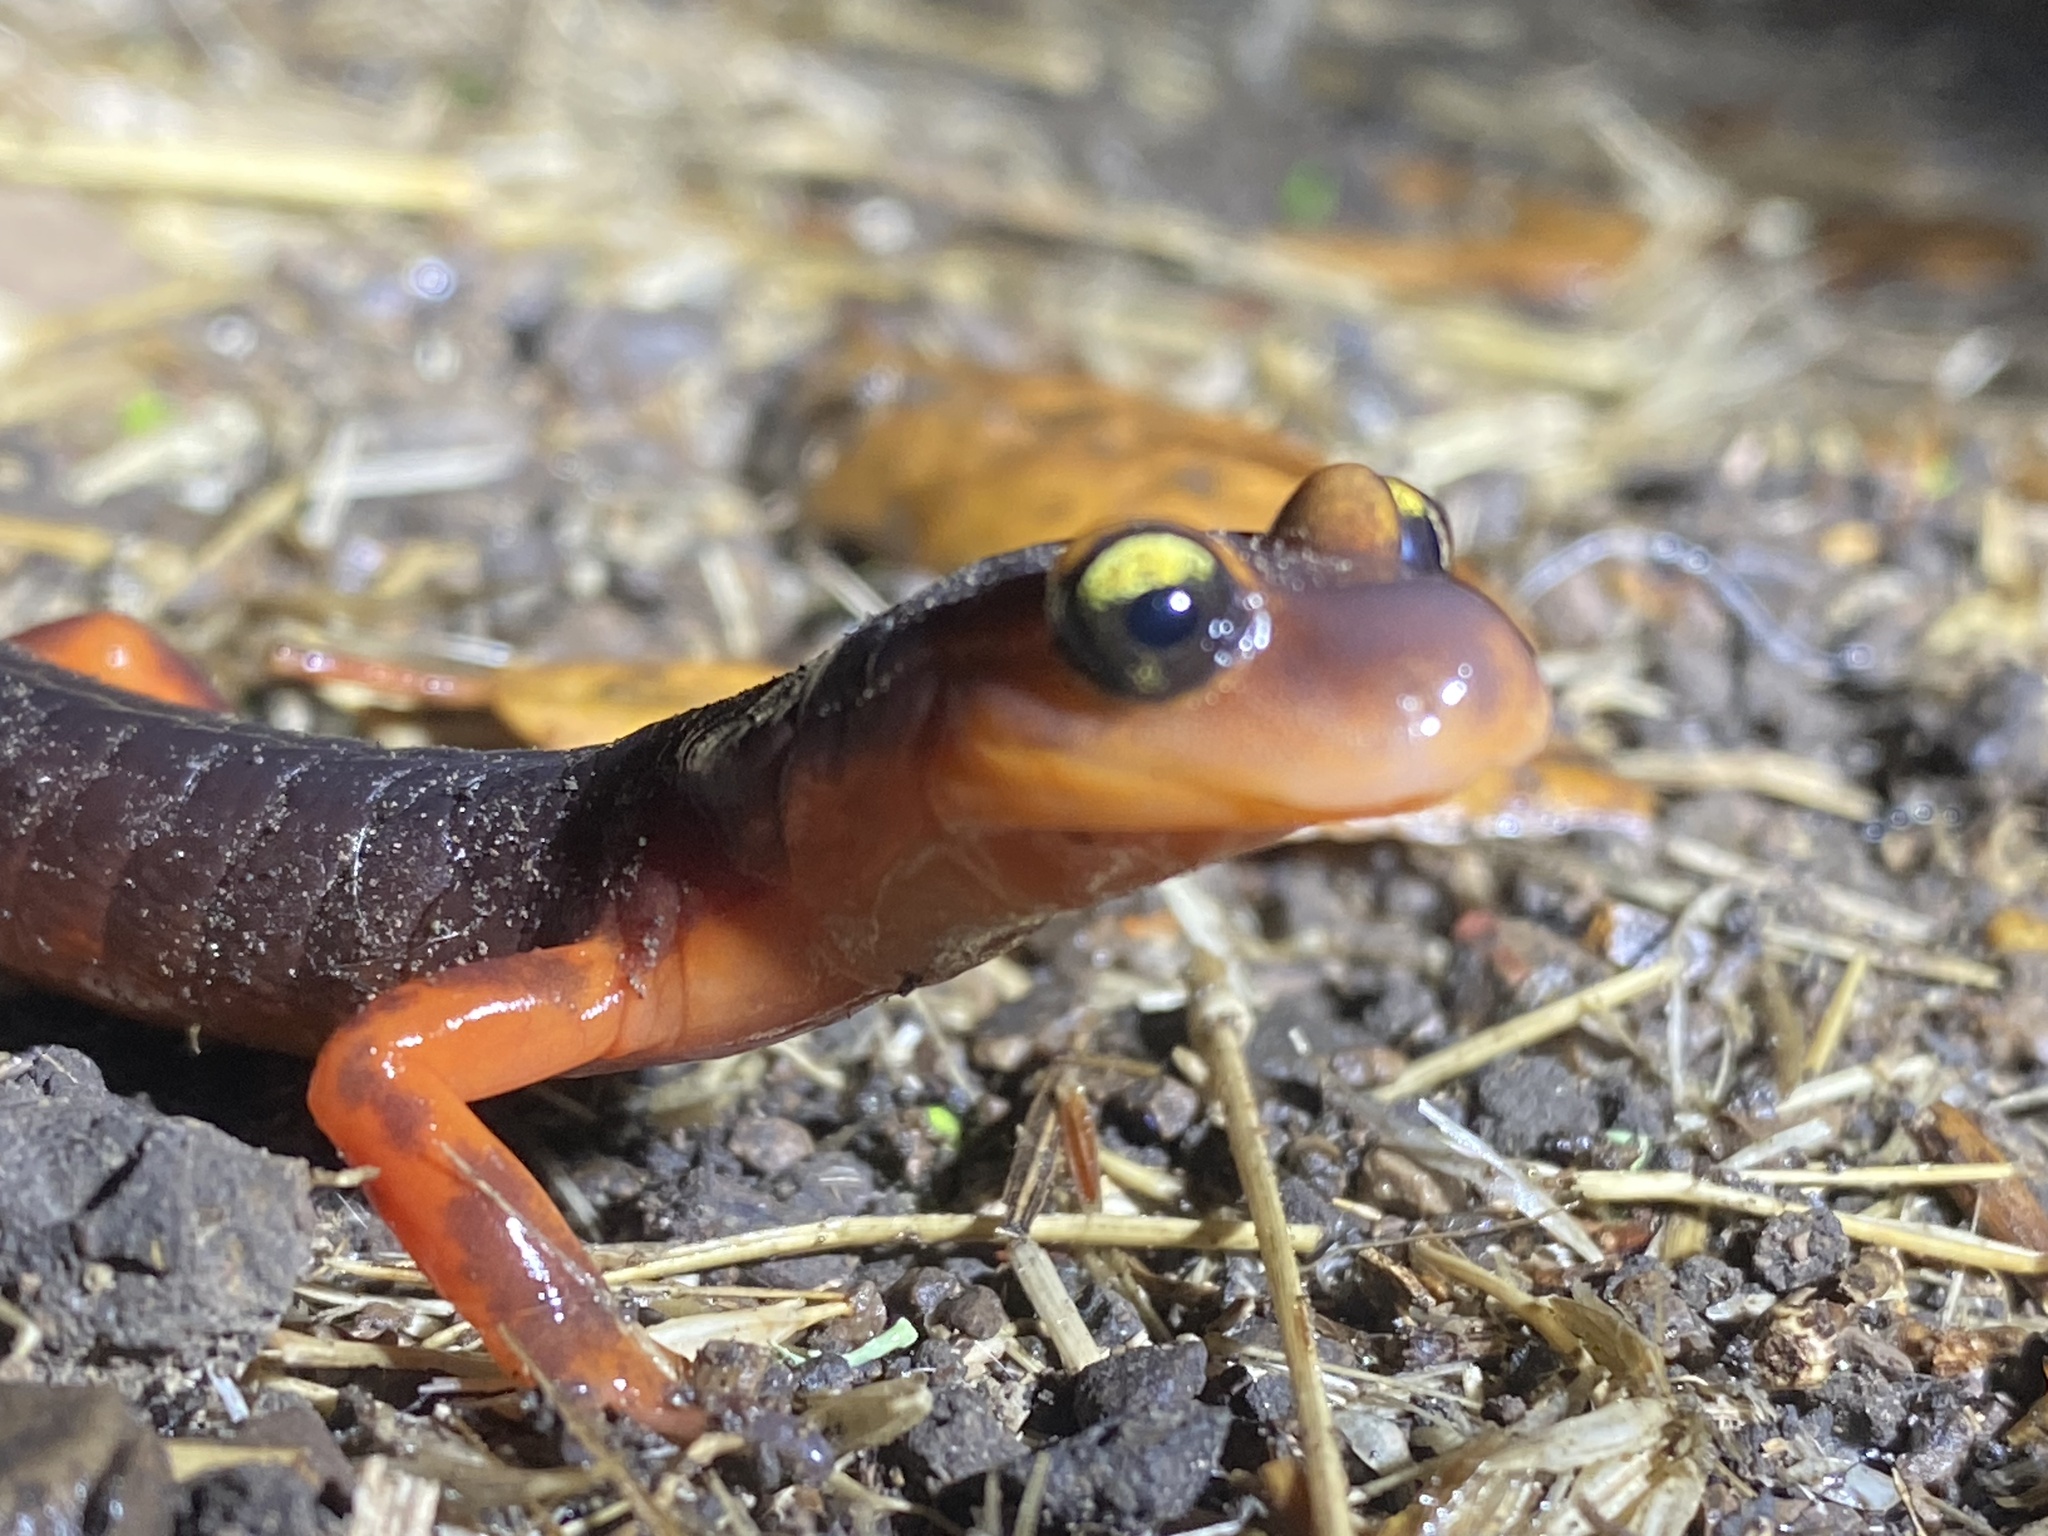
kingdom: Animalia
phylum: Chordata
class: Amphibia
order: Caudata
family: Plethodontidae
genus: Ensatina
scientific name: Ensatina eschscholtzii
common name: Ensatina
